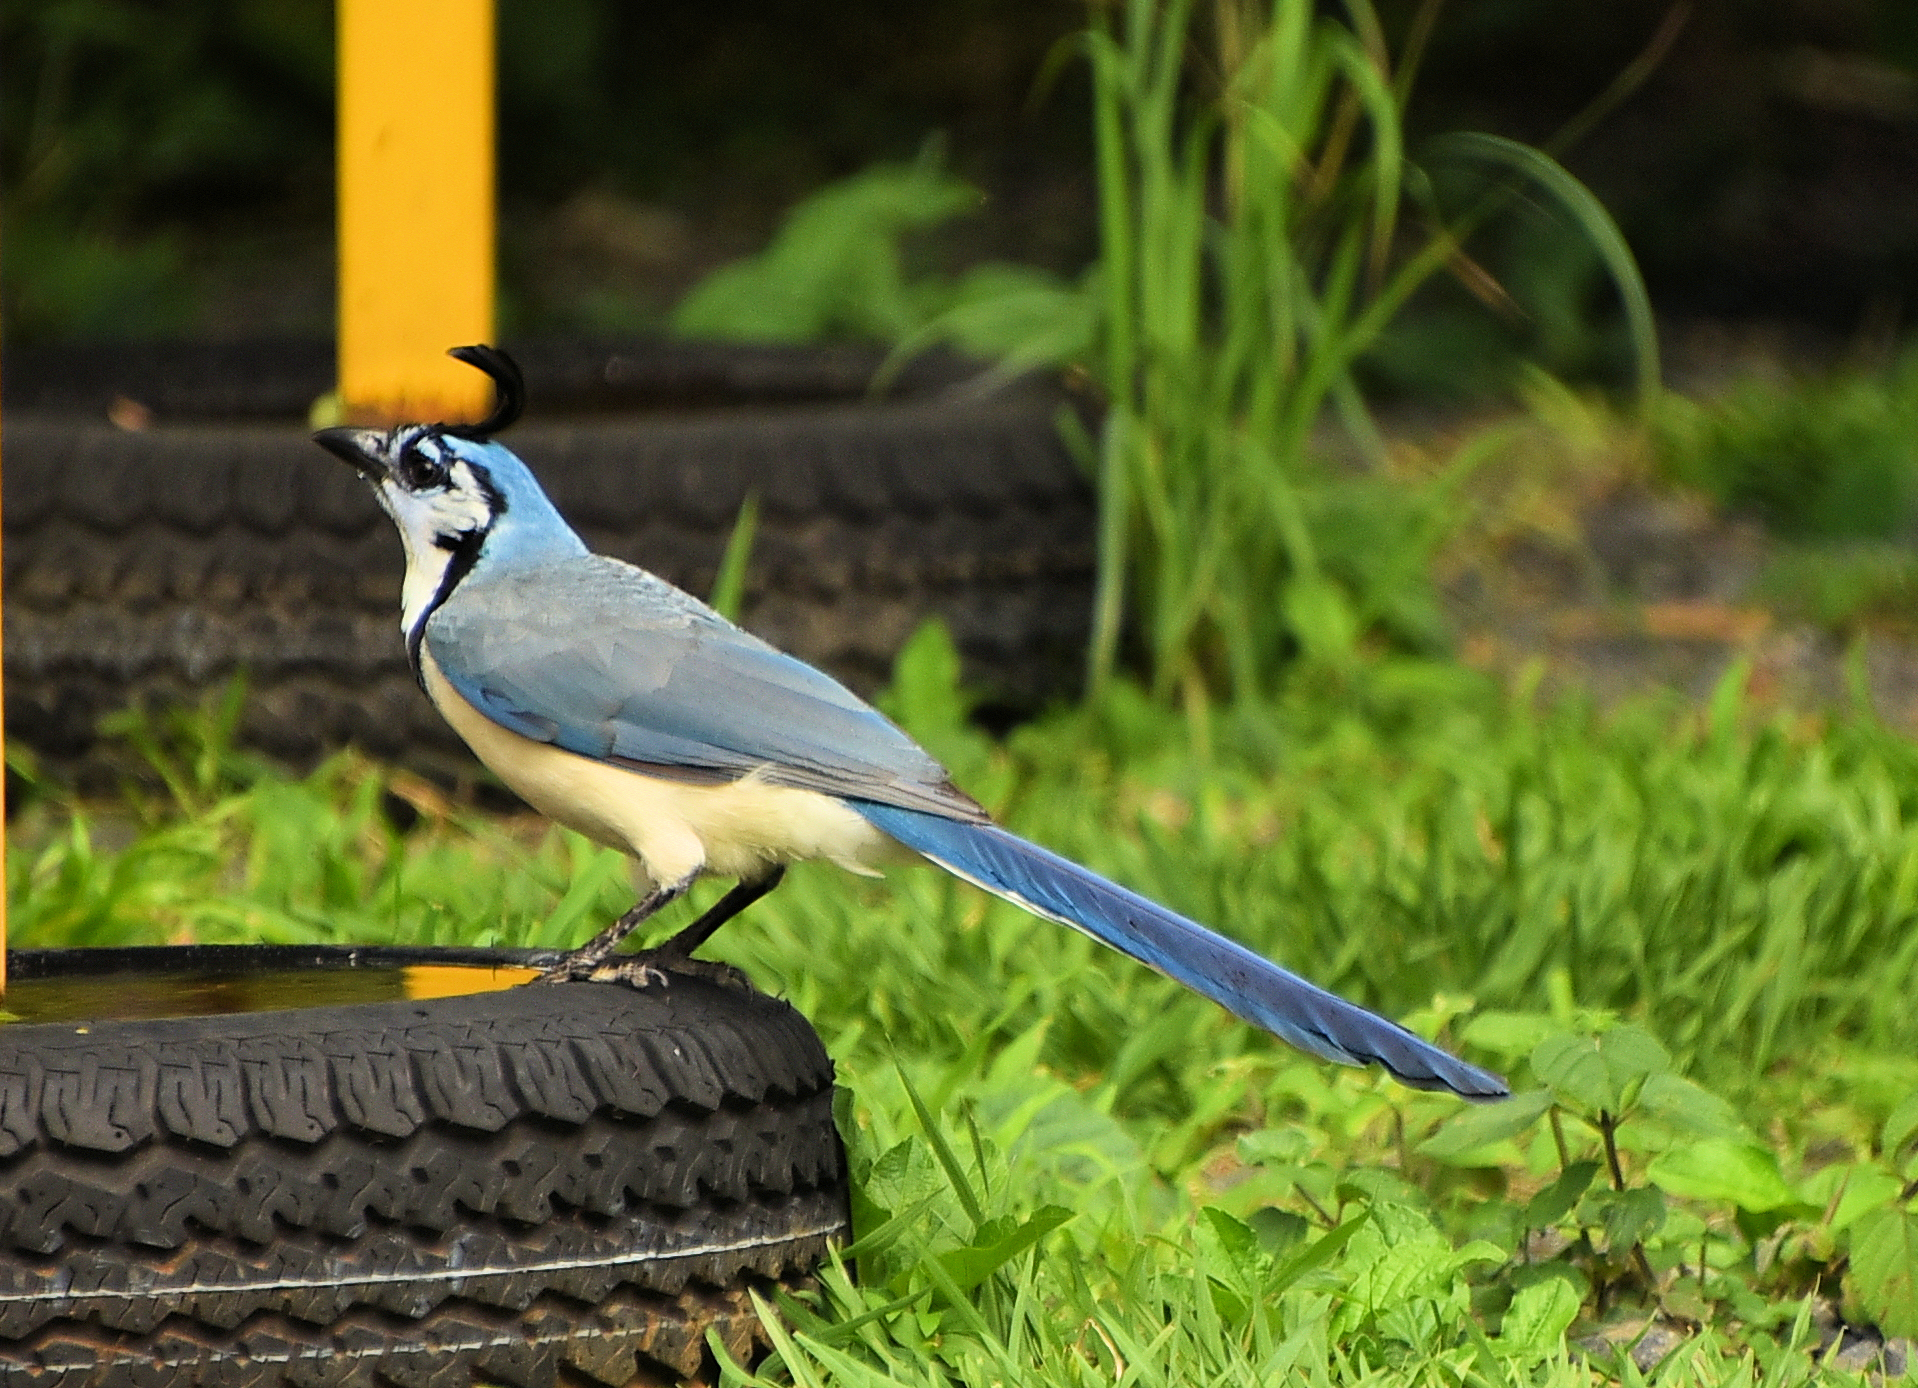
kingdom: Animalia
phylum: Chordata
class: Aves
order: Passeriformes
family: Corvidae
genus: Calocitta
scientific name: Calocitta formosa
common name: White-throated magpie-jay
